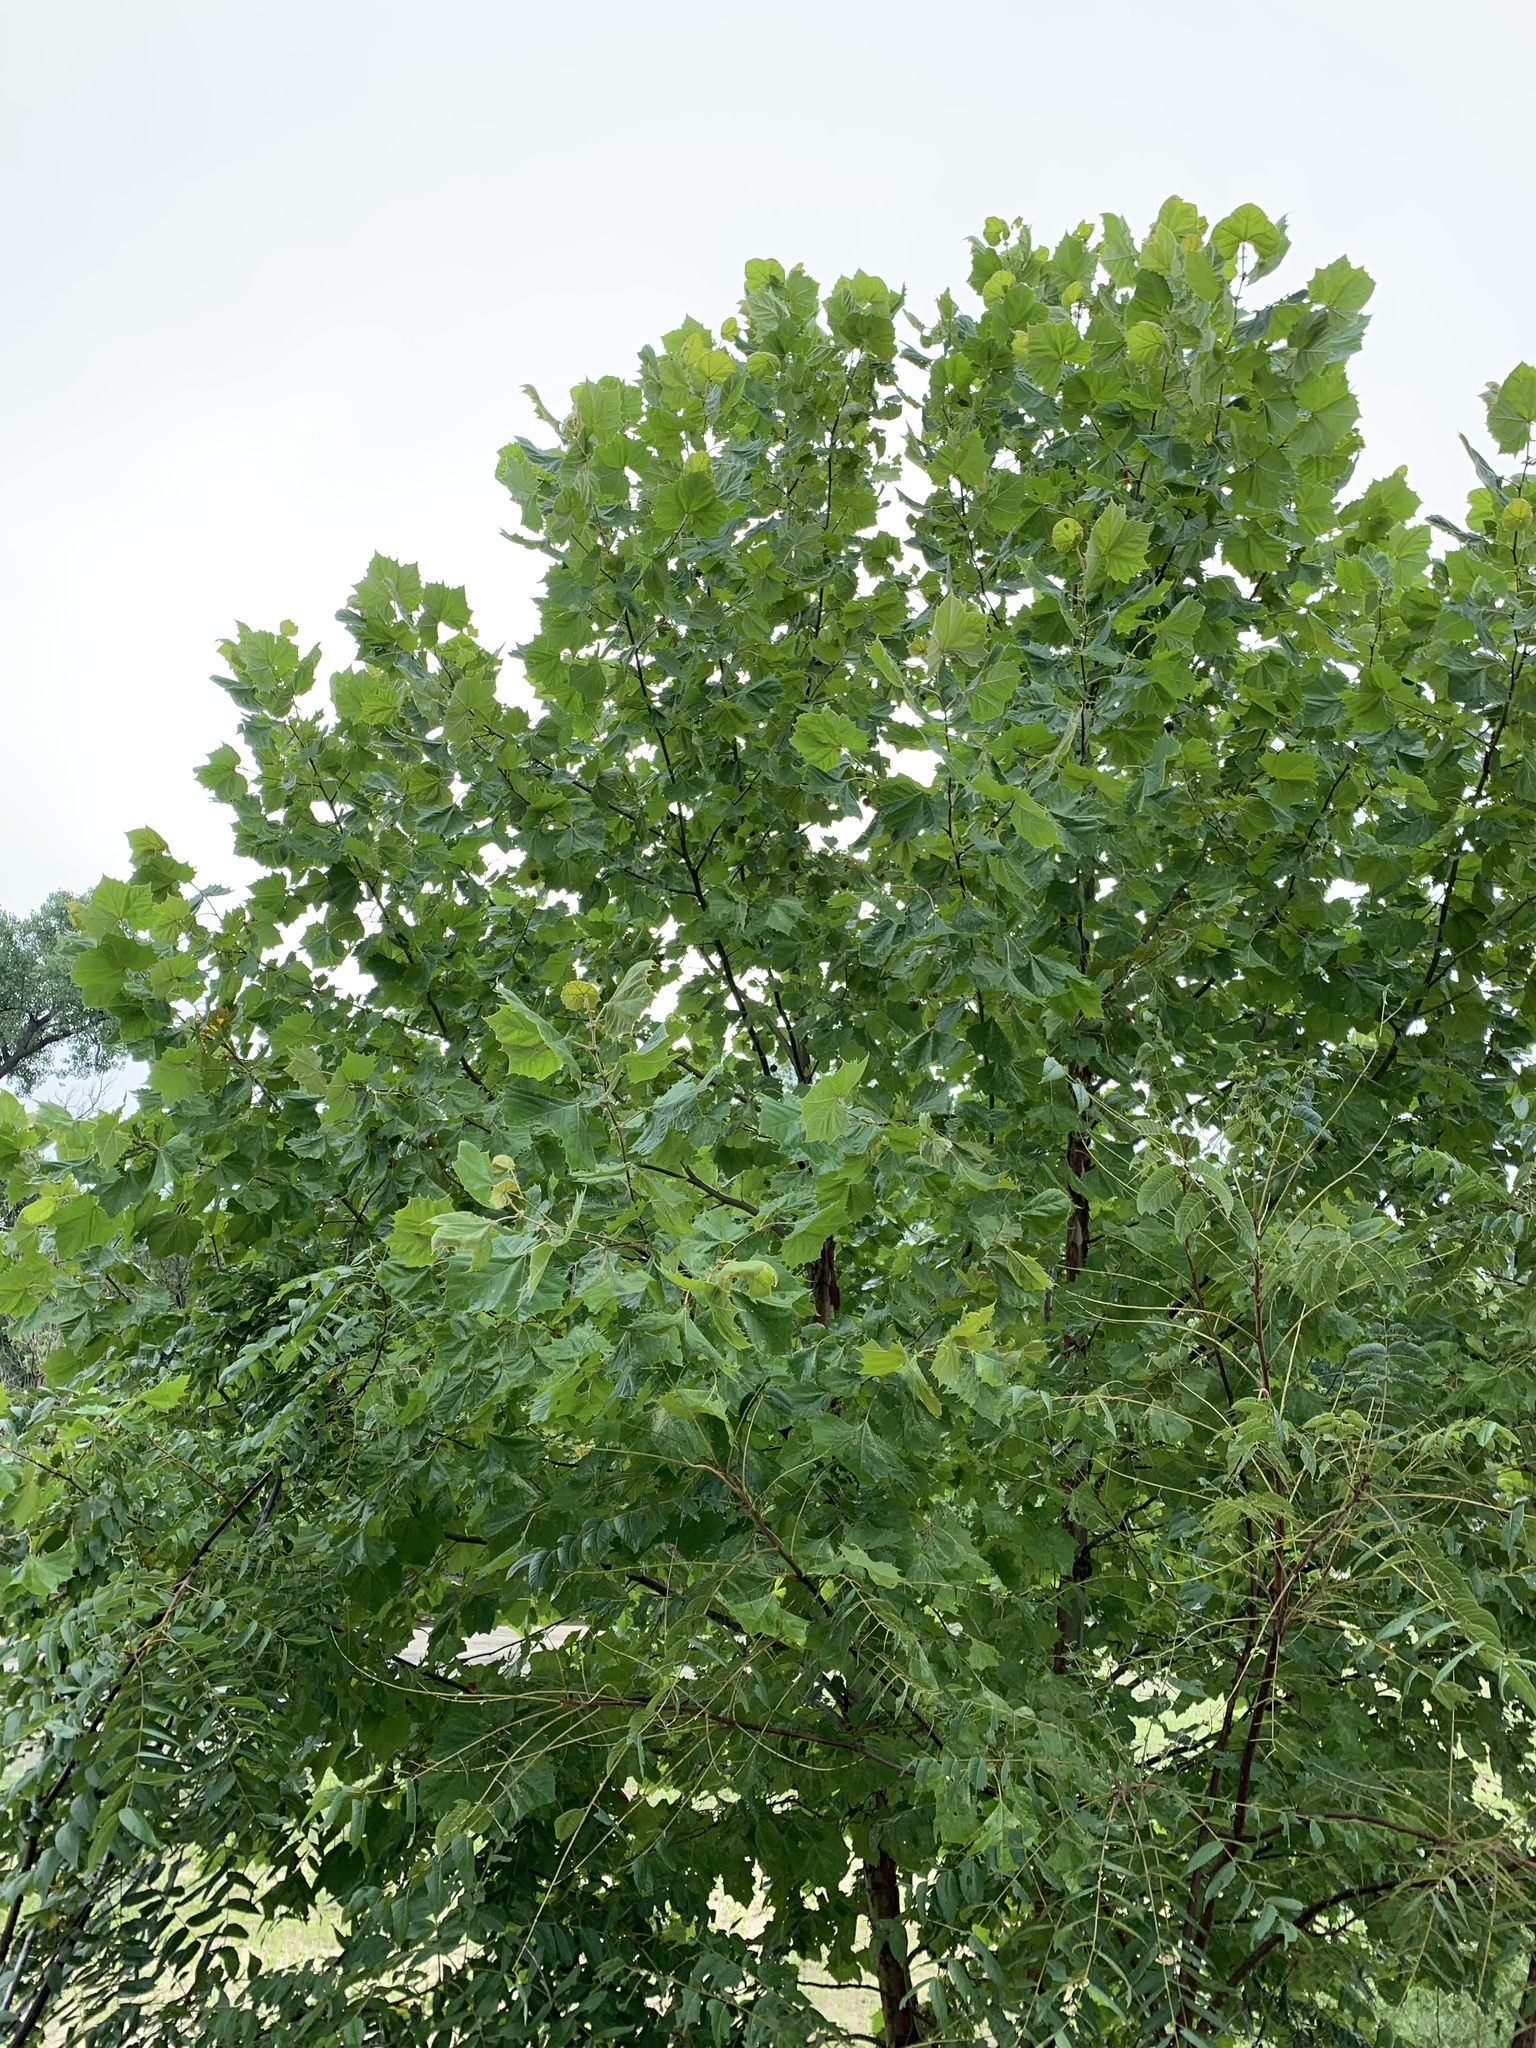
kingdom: Plantae
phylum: Tracheophyta
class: Magnoliopsida
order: Proteales
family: Platanaceae
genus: Platanus
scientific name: Platanus occidentalis
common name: American sycamore
